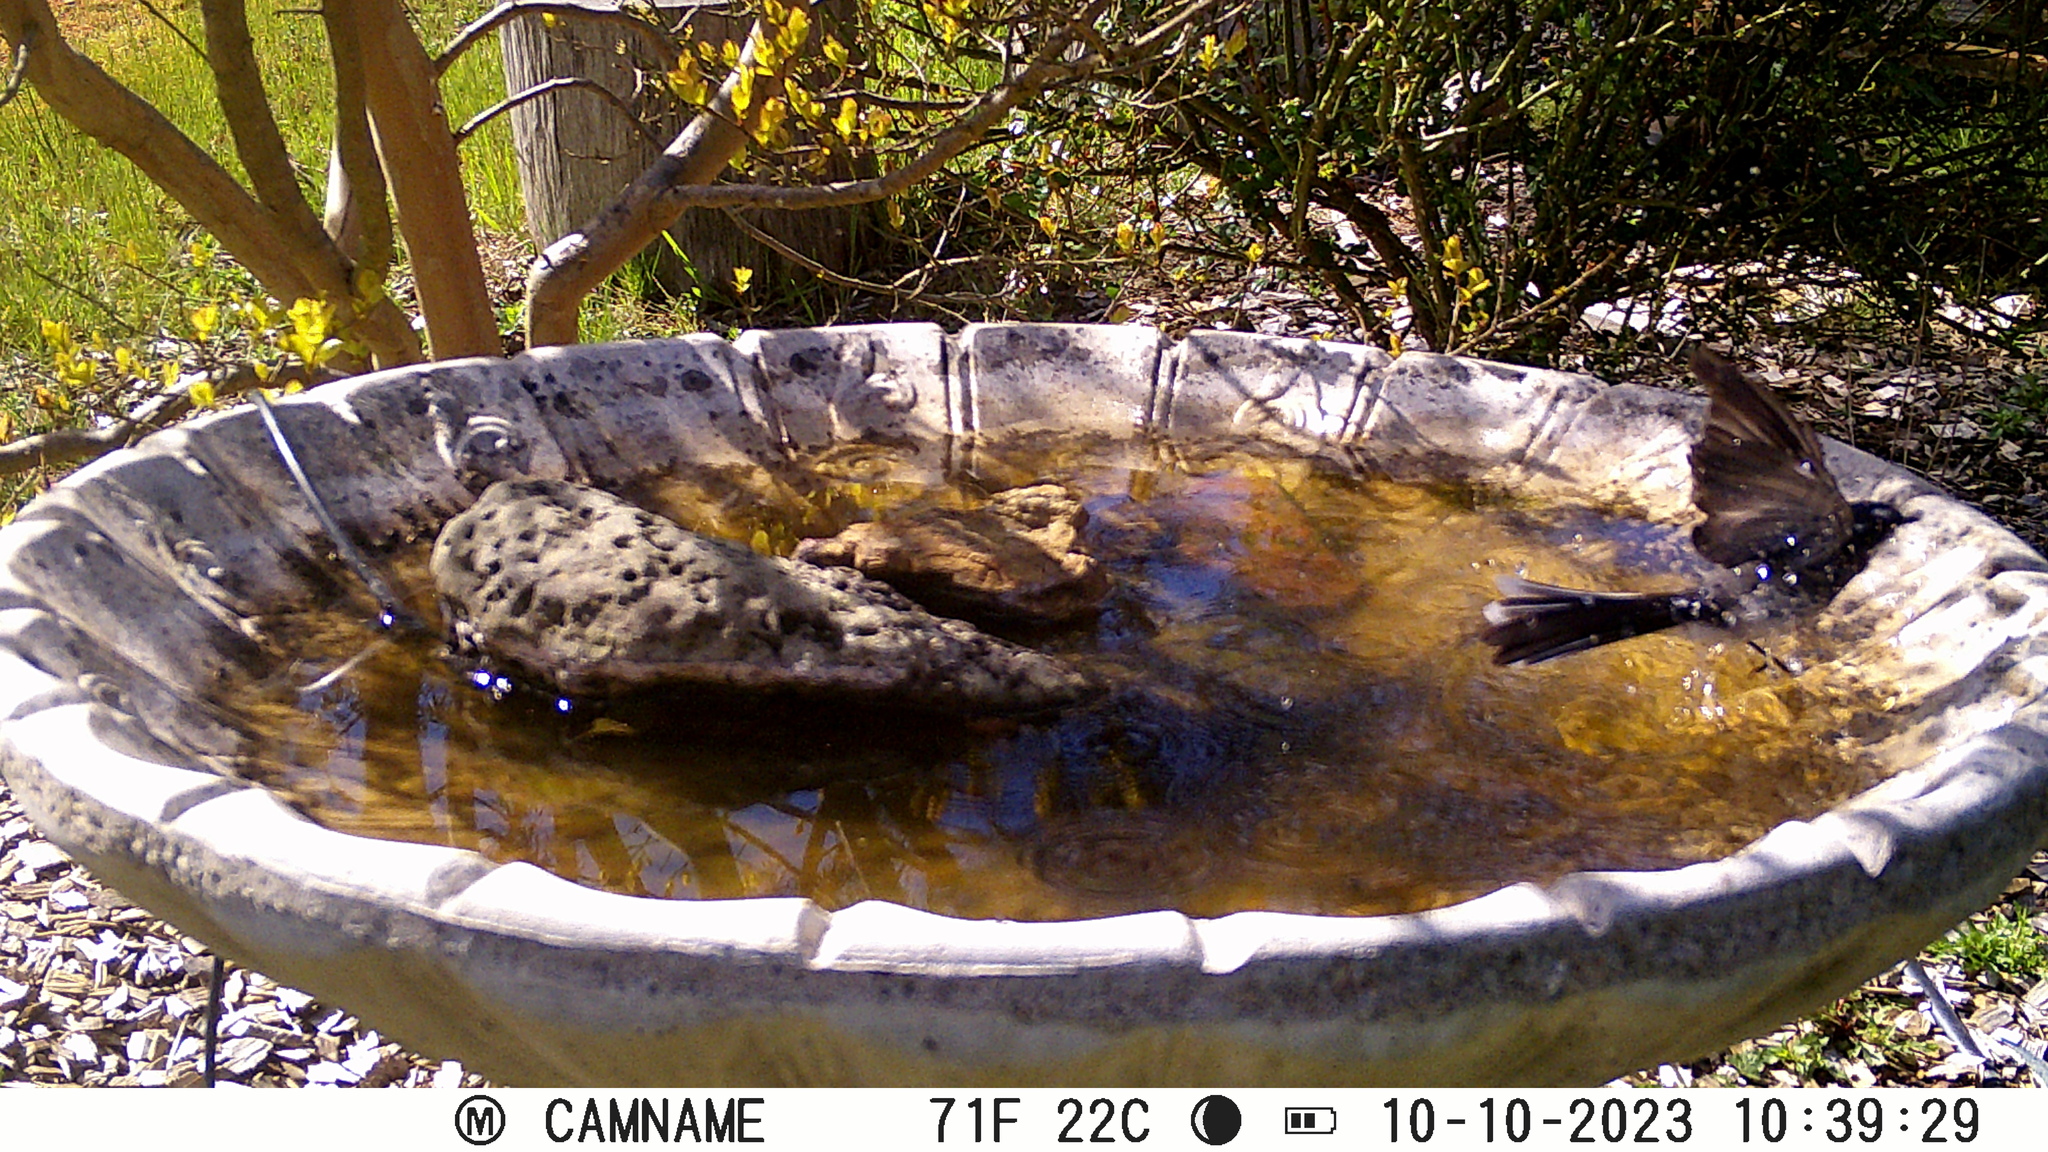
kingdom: Animalia
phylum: Chordata
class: Aves
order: Passeriformes
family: Rhipiduridae
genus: Rhipidura
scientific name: Rhipidura leucophrys
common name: Willie wagtail
